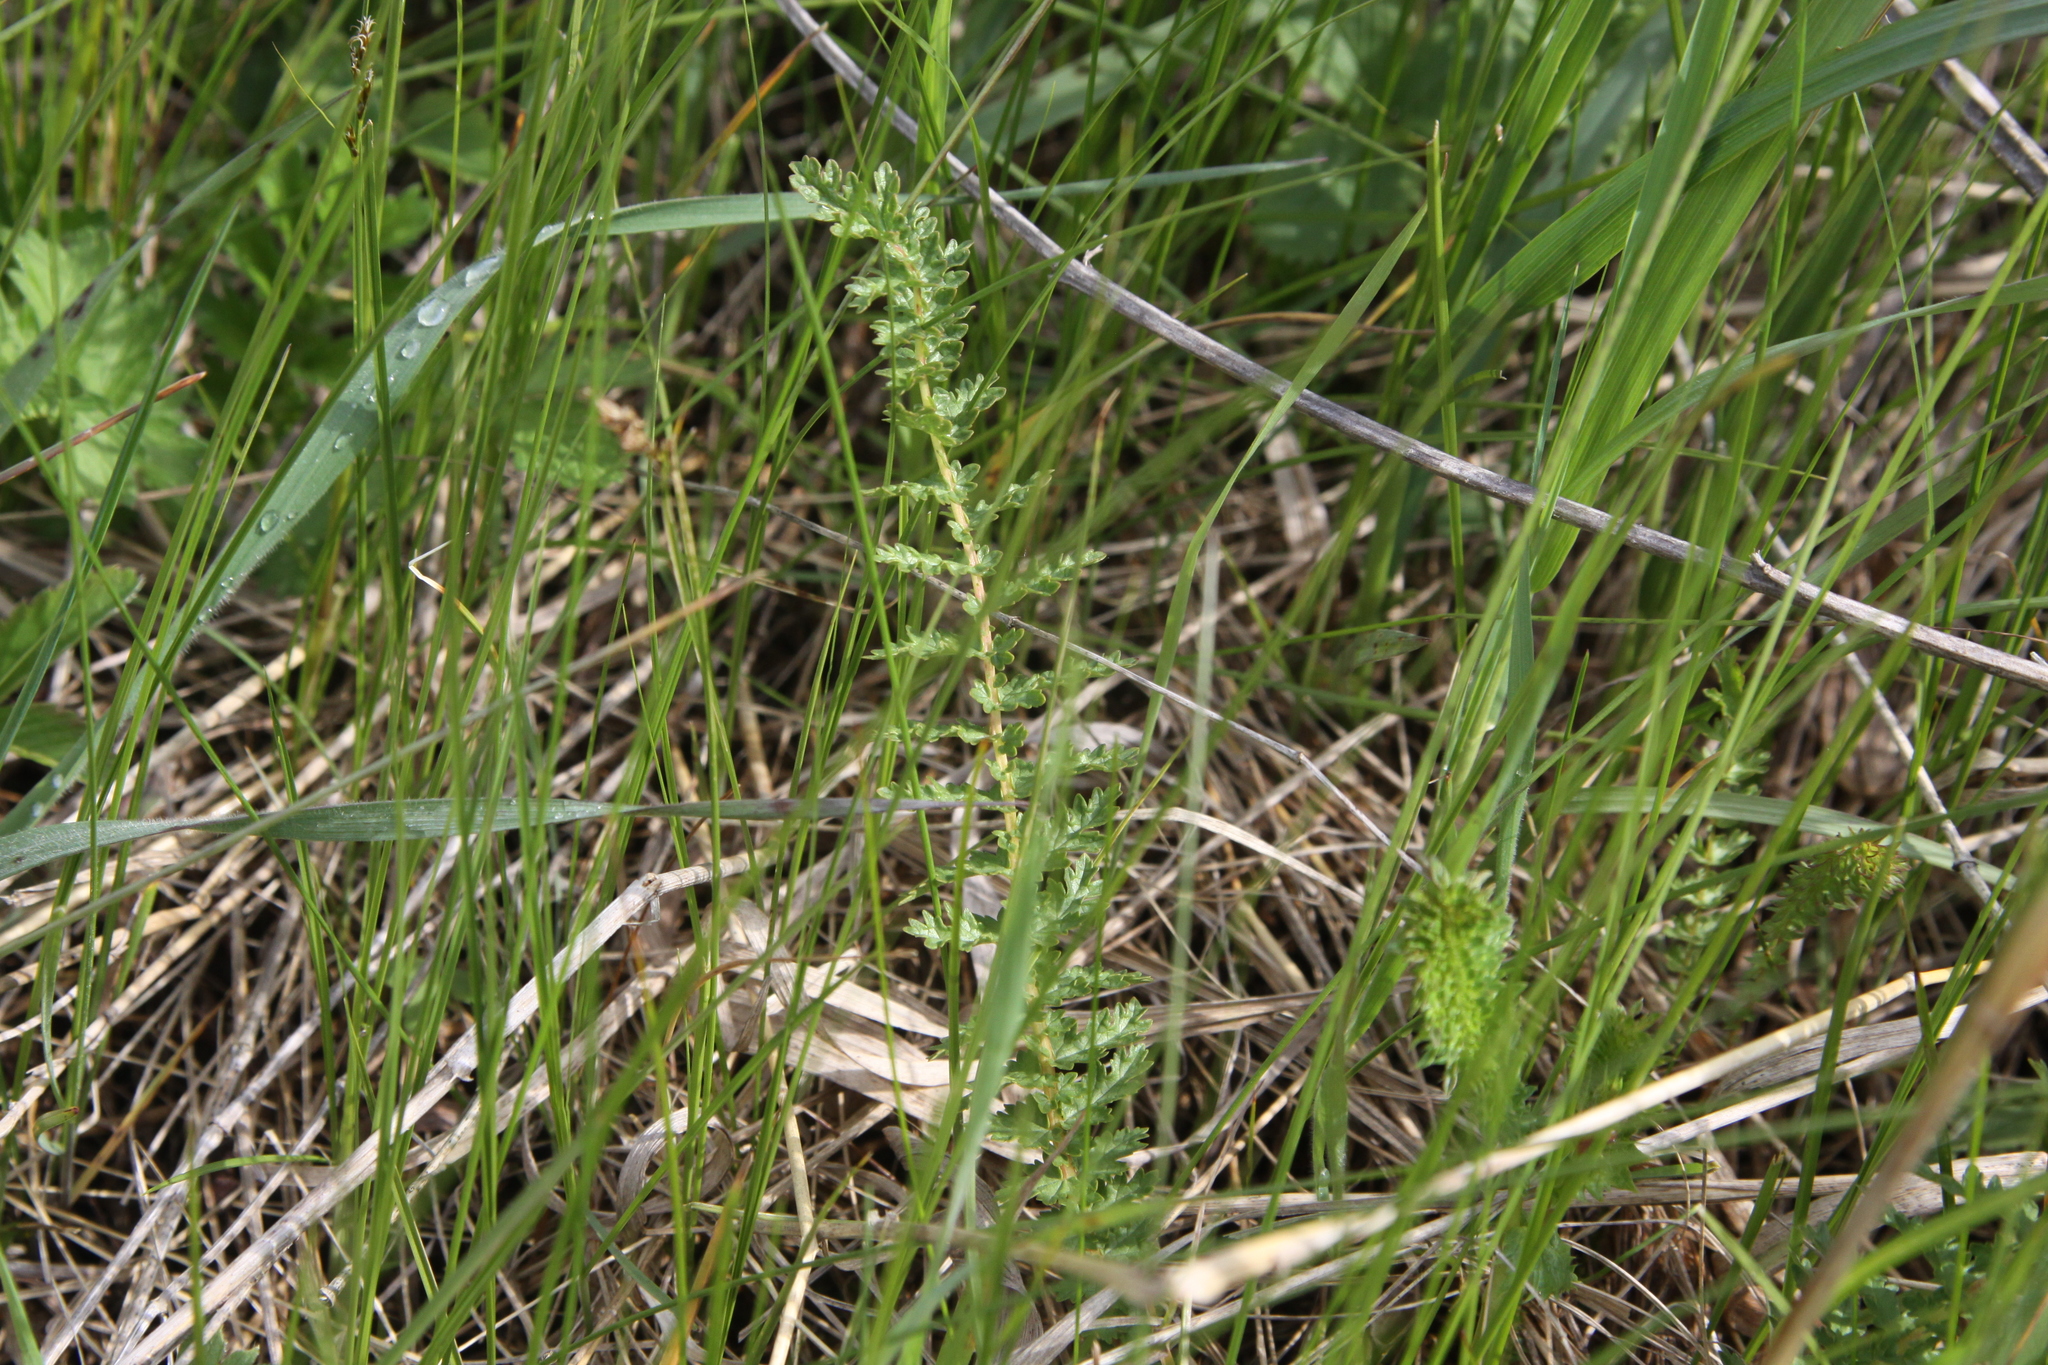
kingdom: Plantae
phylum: Tracheophyta
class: Magnoliopsida
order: Rosales
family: Rosaceae
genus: Filipendula
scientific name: Filipendula vulgaris
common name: Dropwort
